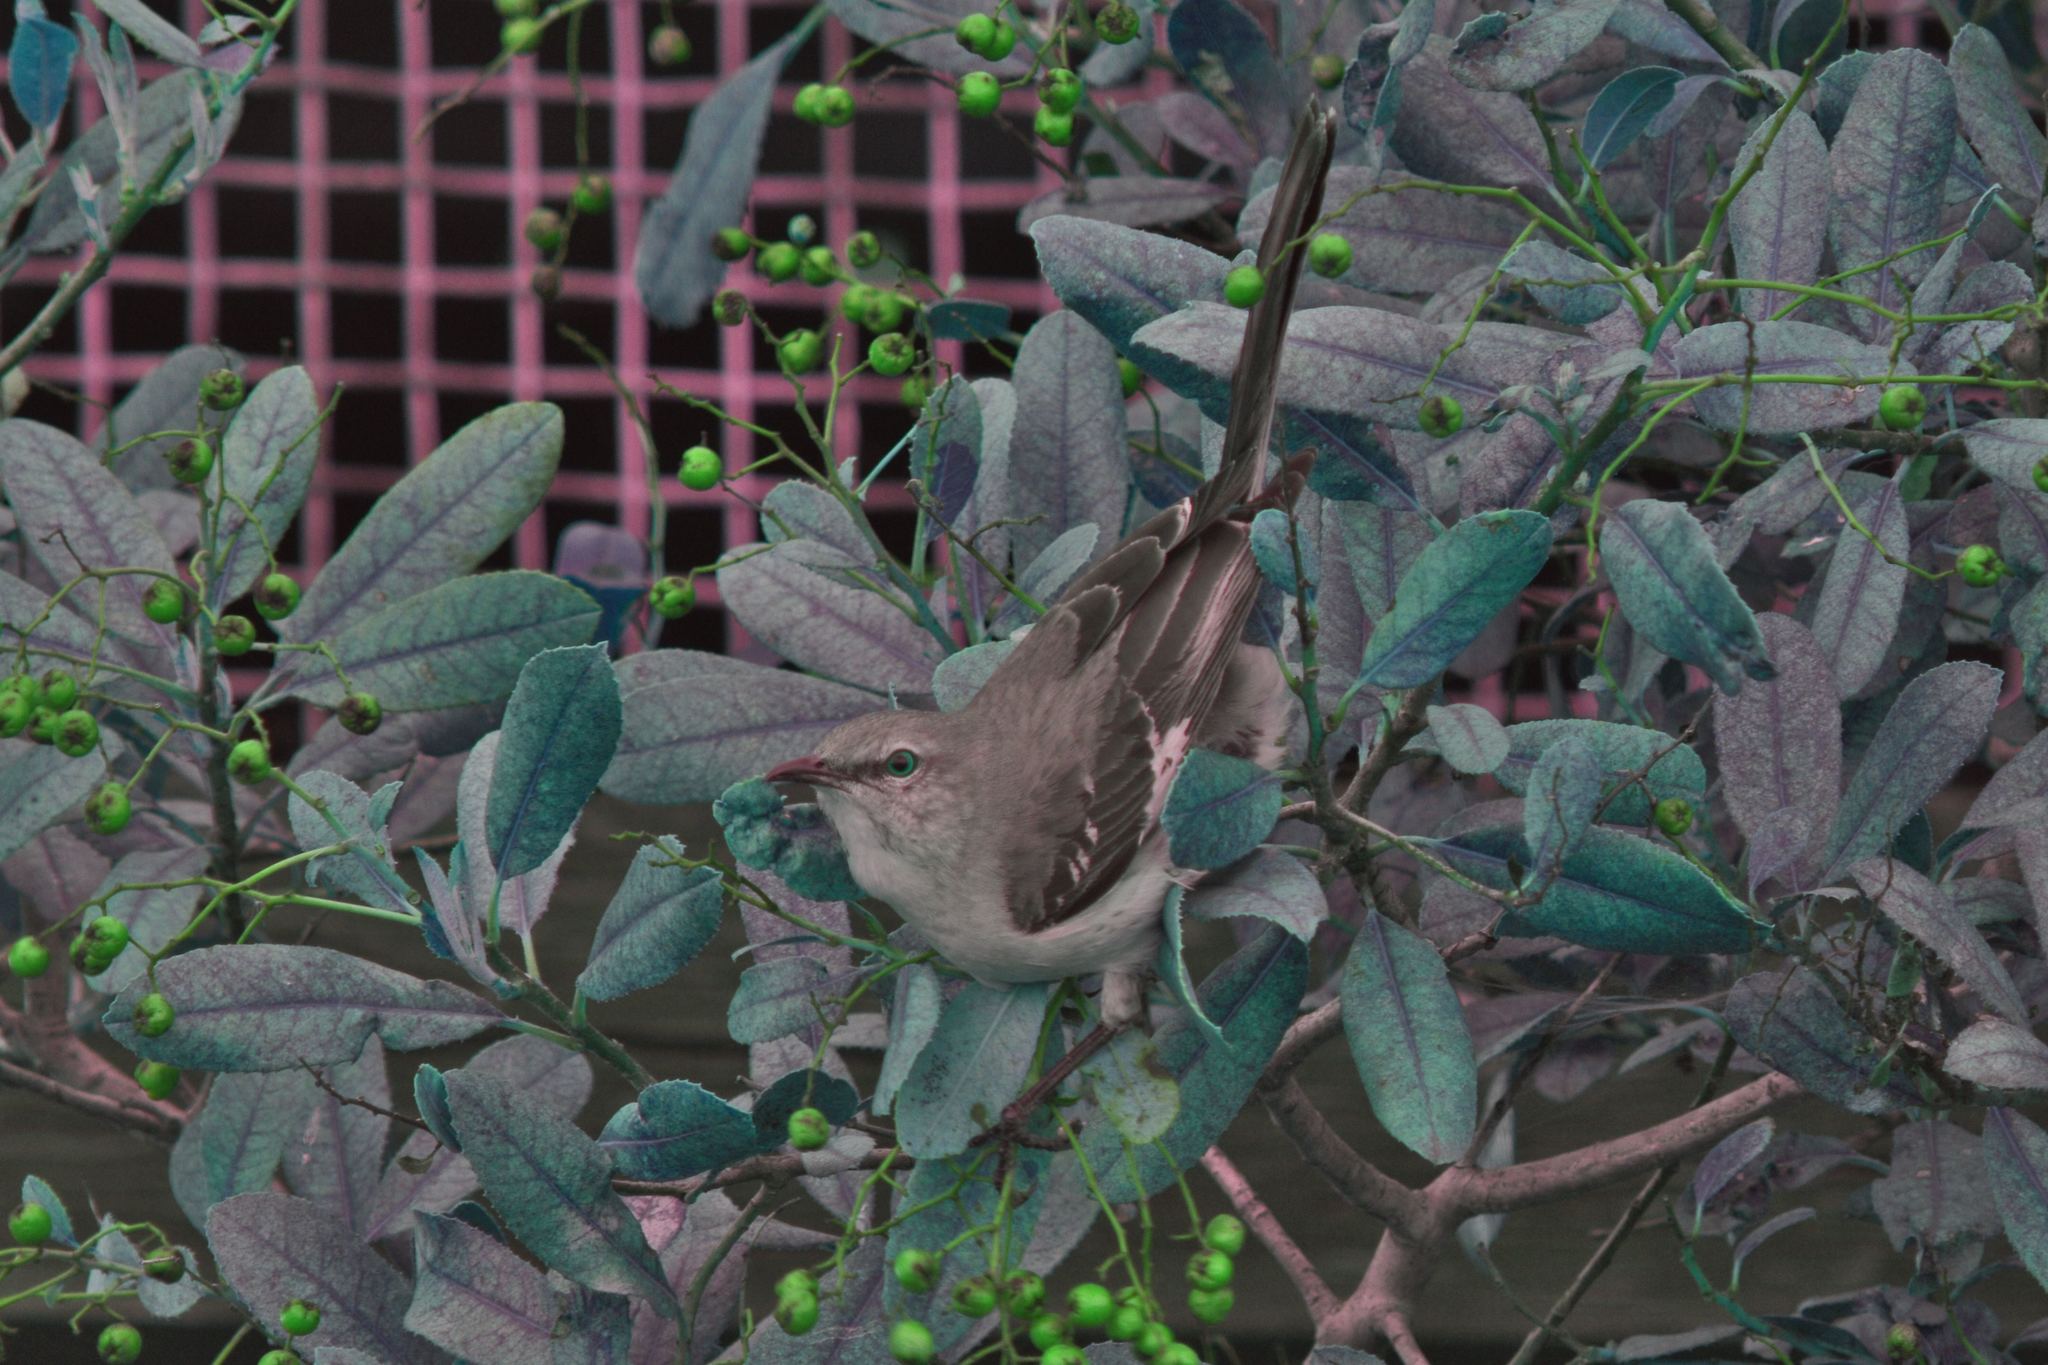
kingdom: Animalia
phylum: Chordata
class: Aves
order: Passeriformes
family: Mimidae
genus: Mimus
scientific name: Mimus polyglottos
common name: Northern mockingbird
